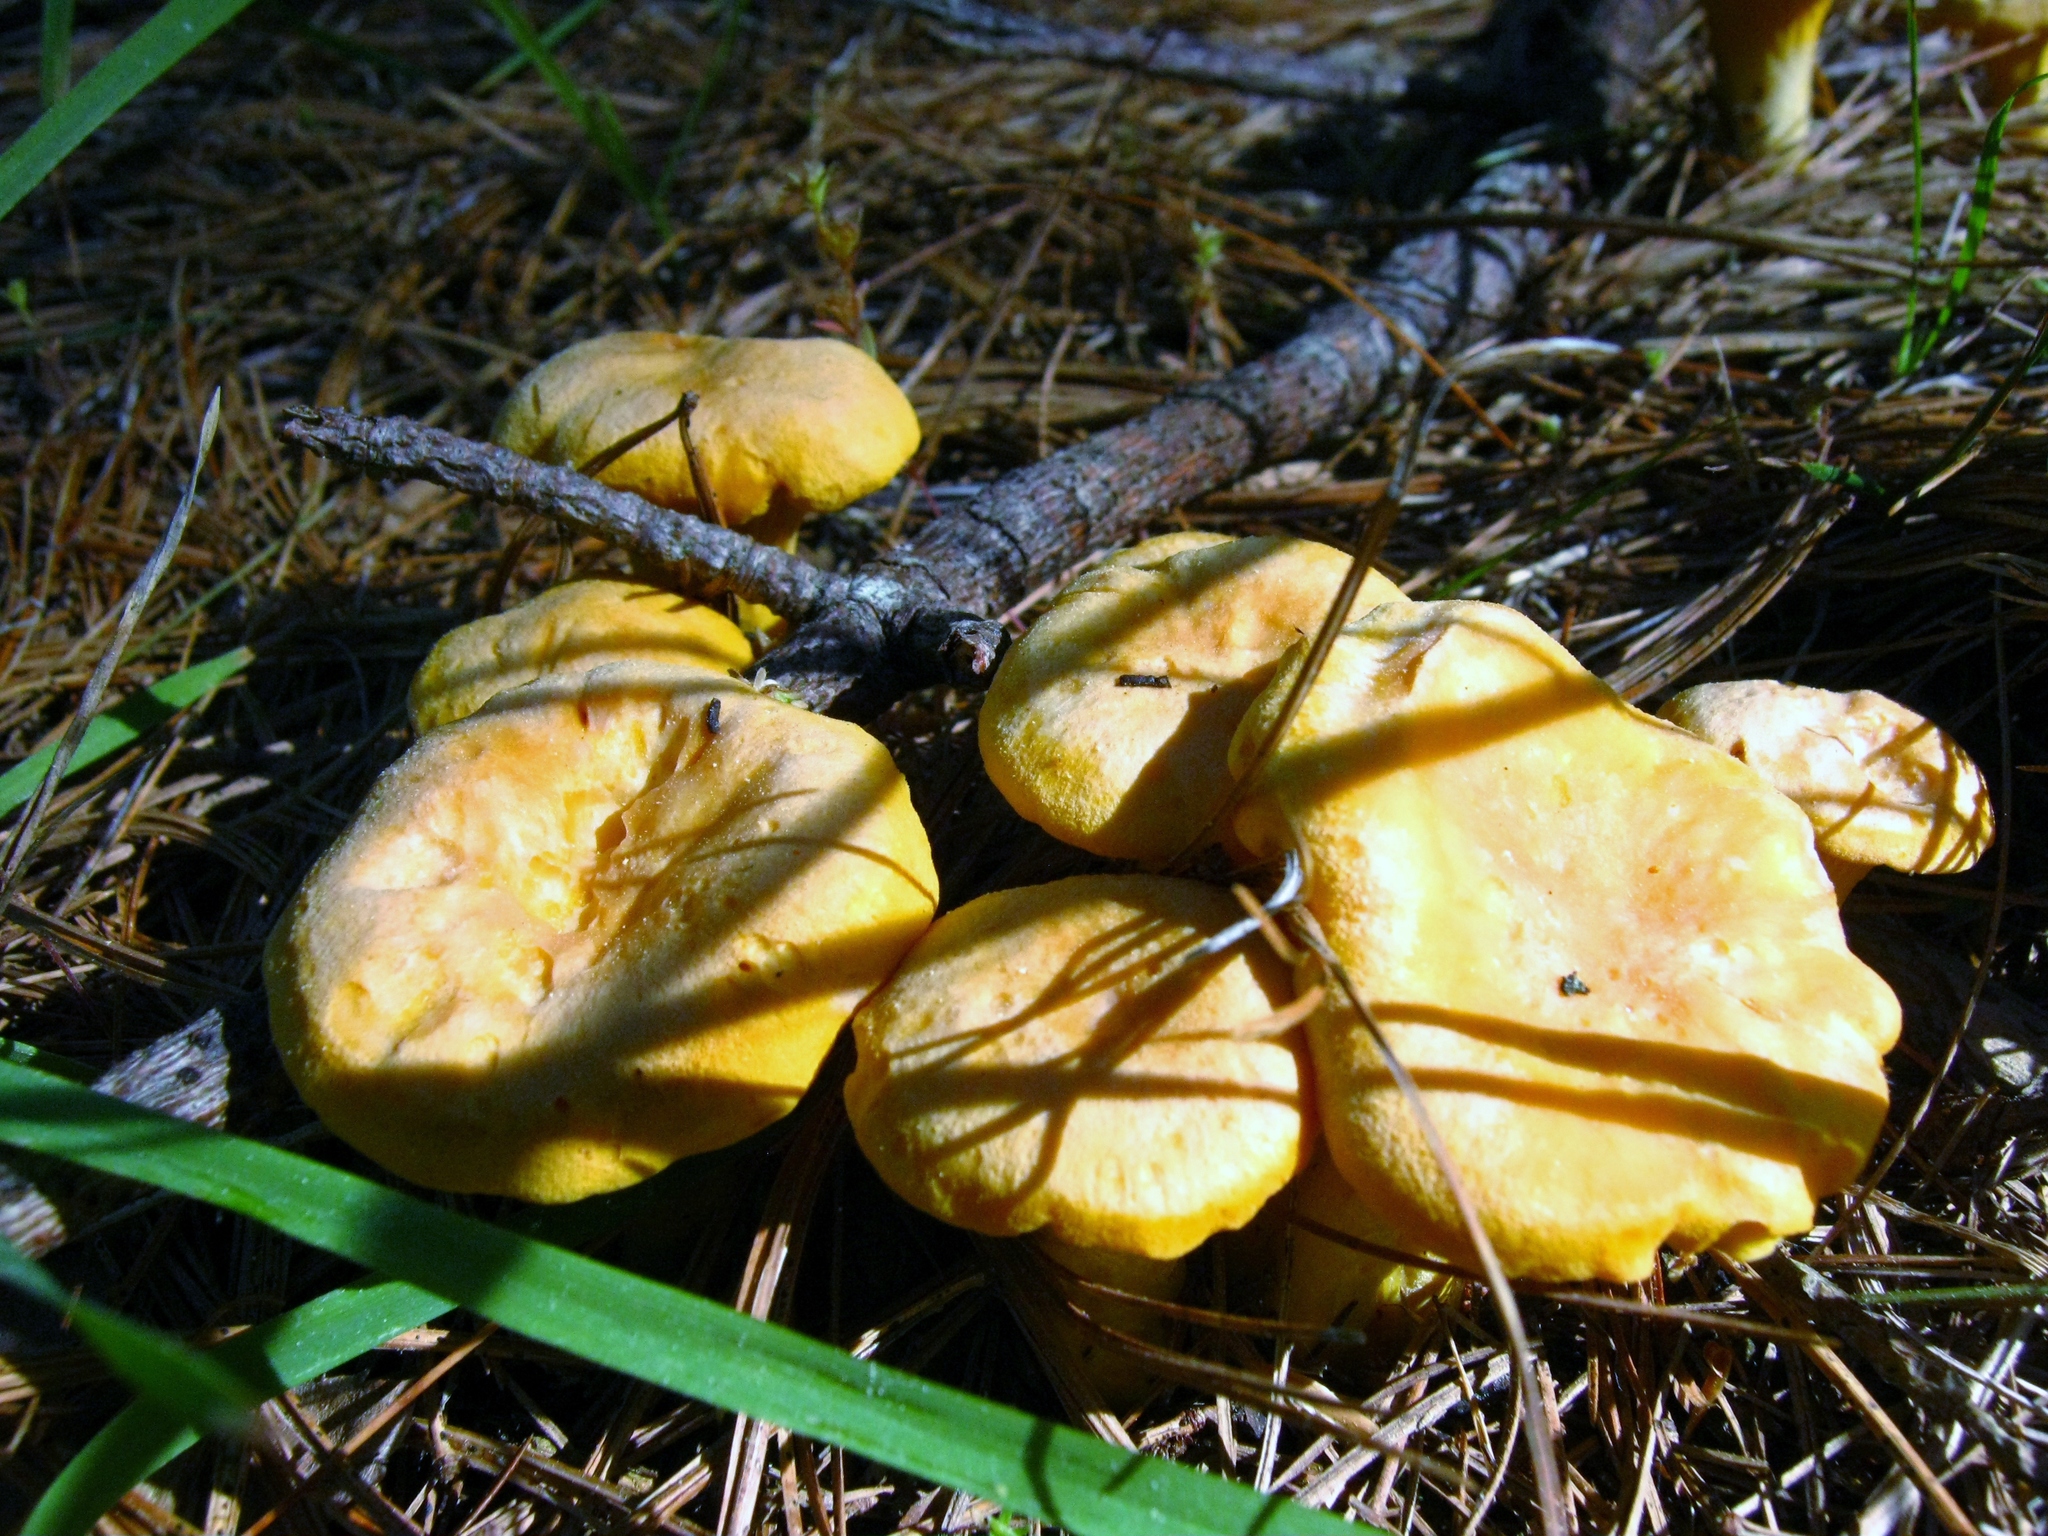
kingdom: Fungi
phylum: Basidiomycota
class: Agaricomycetes
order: Cantharellales
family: Hydnaceae
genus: Cantharellus
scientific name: Cantharellus enelensis
